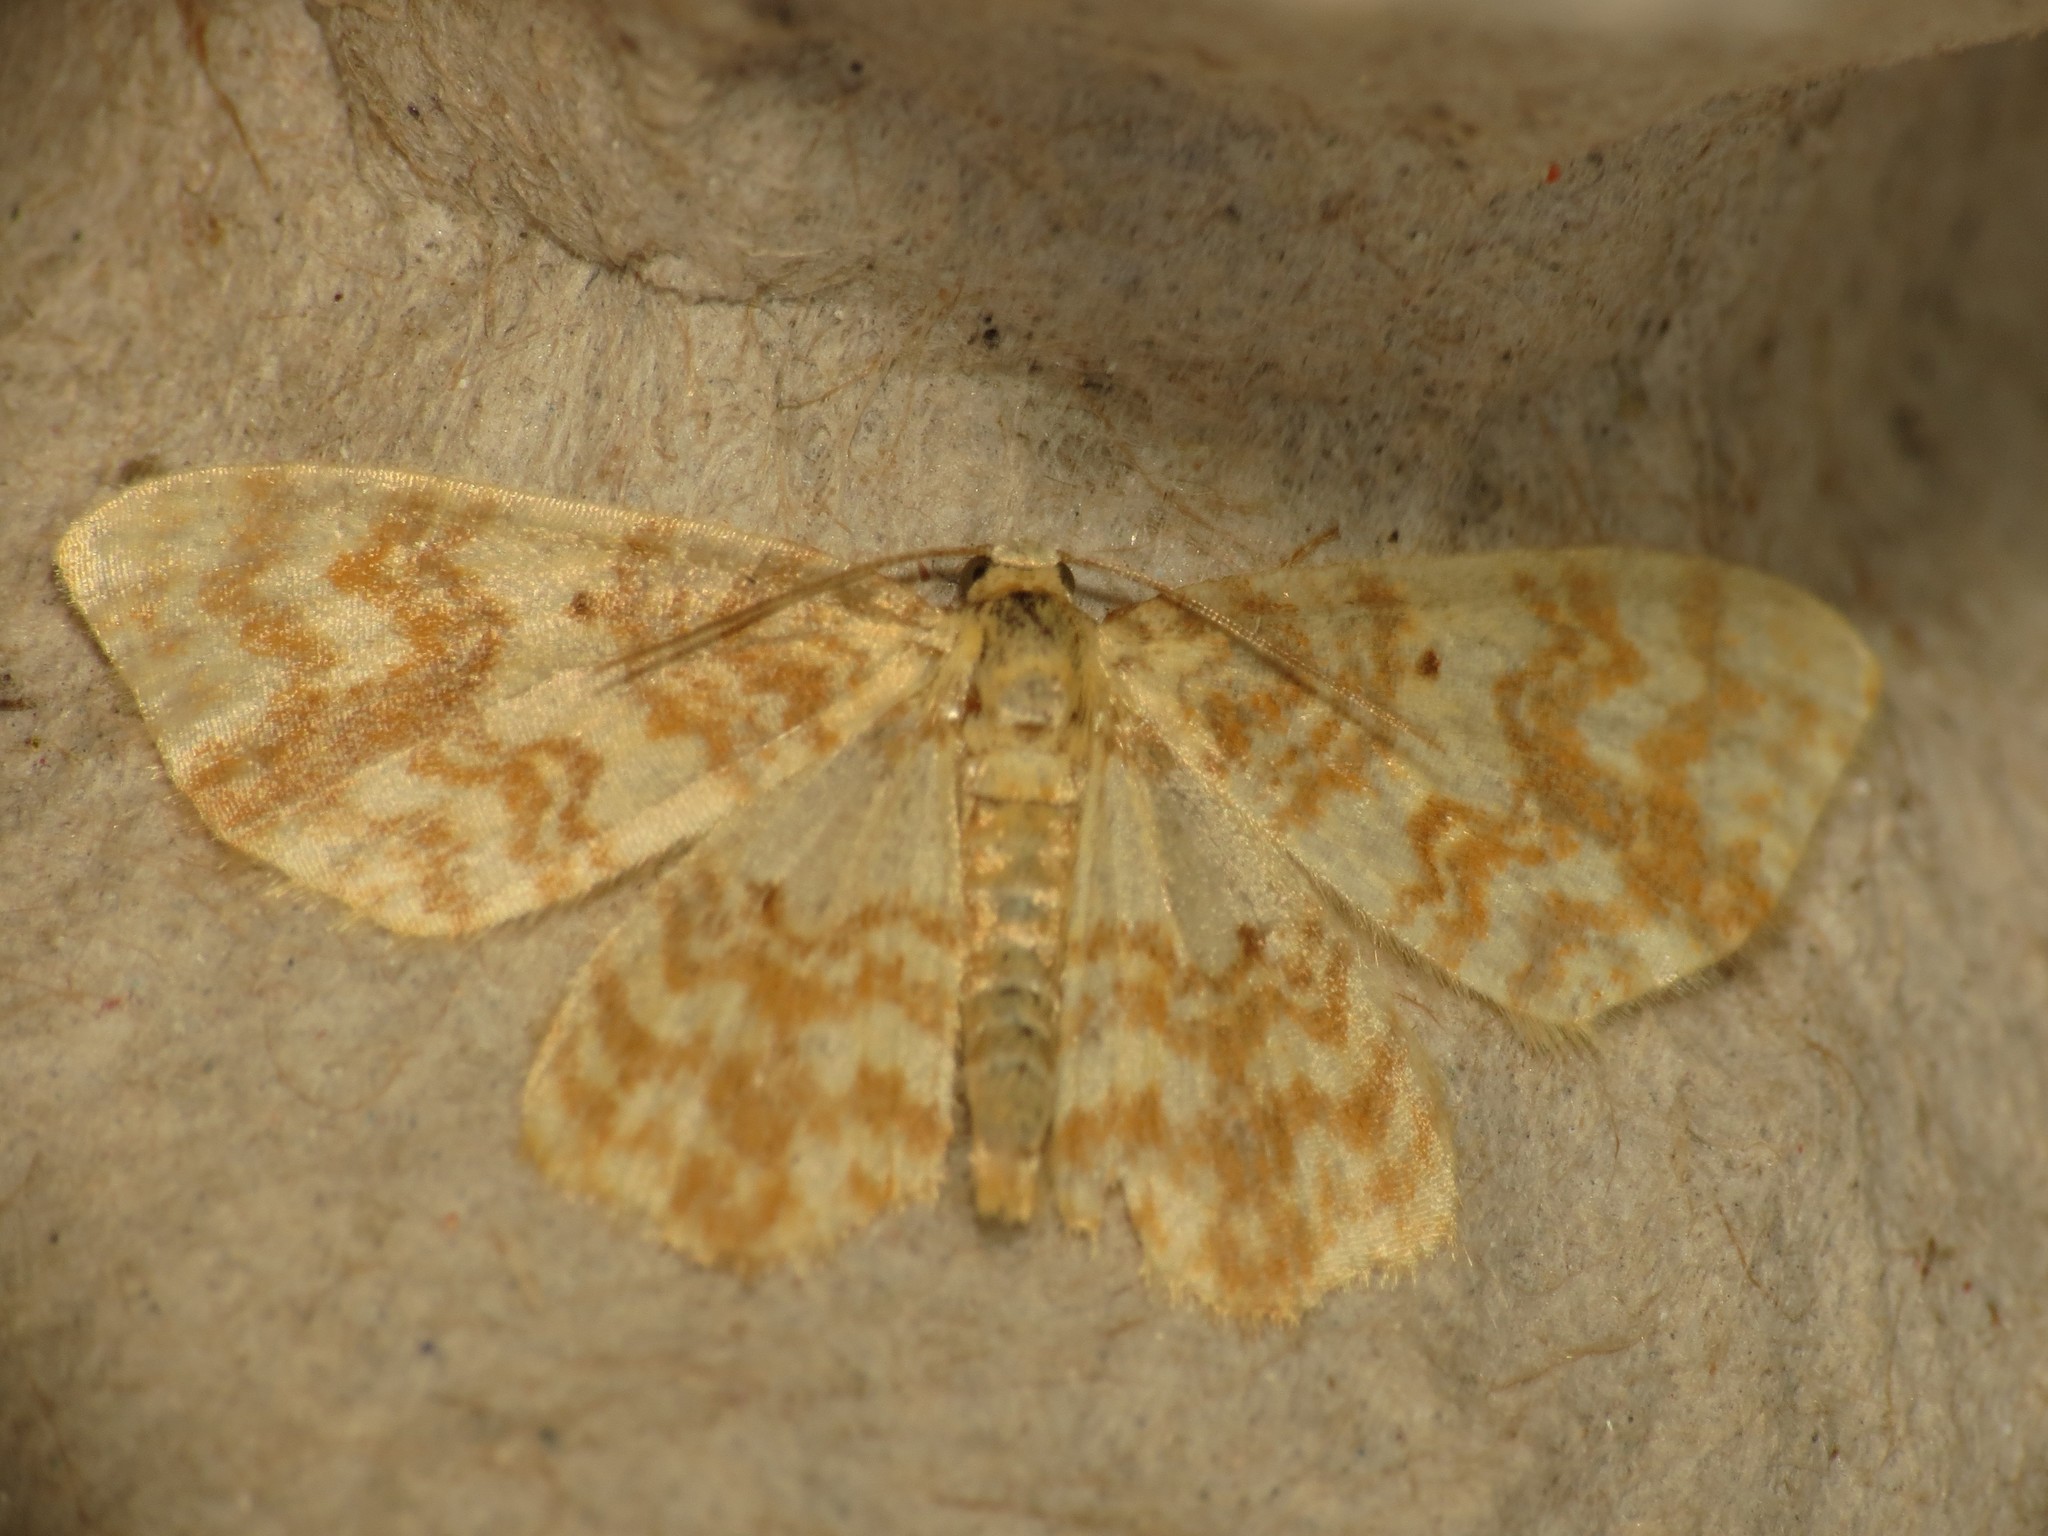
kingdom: Animalia
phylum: Arthropoda
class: Insecta
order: Lepidoptera
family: Geometridae
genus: Hydrelia
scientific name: Hydrelia flammeolaria
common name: Small yellow wave
